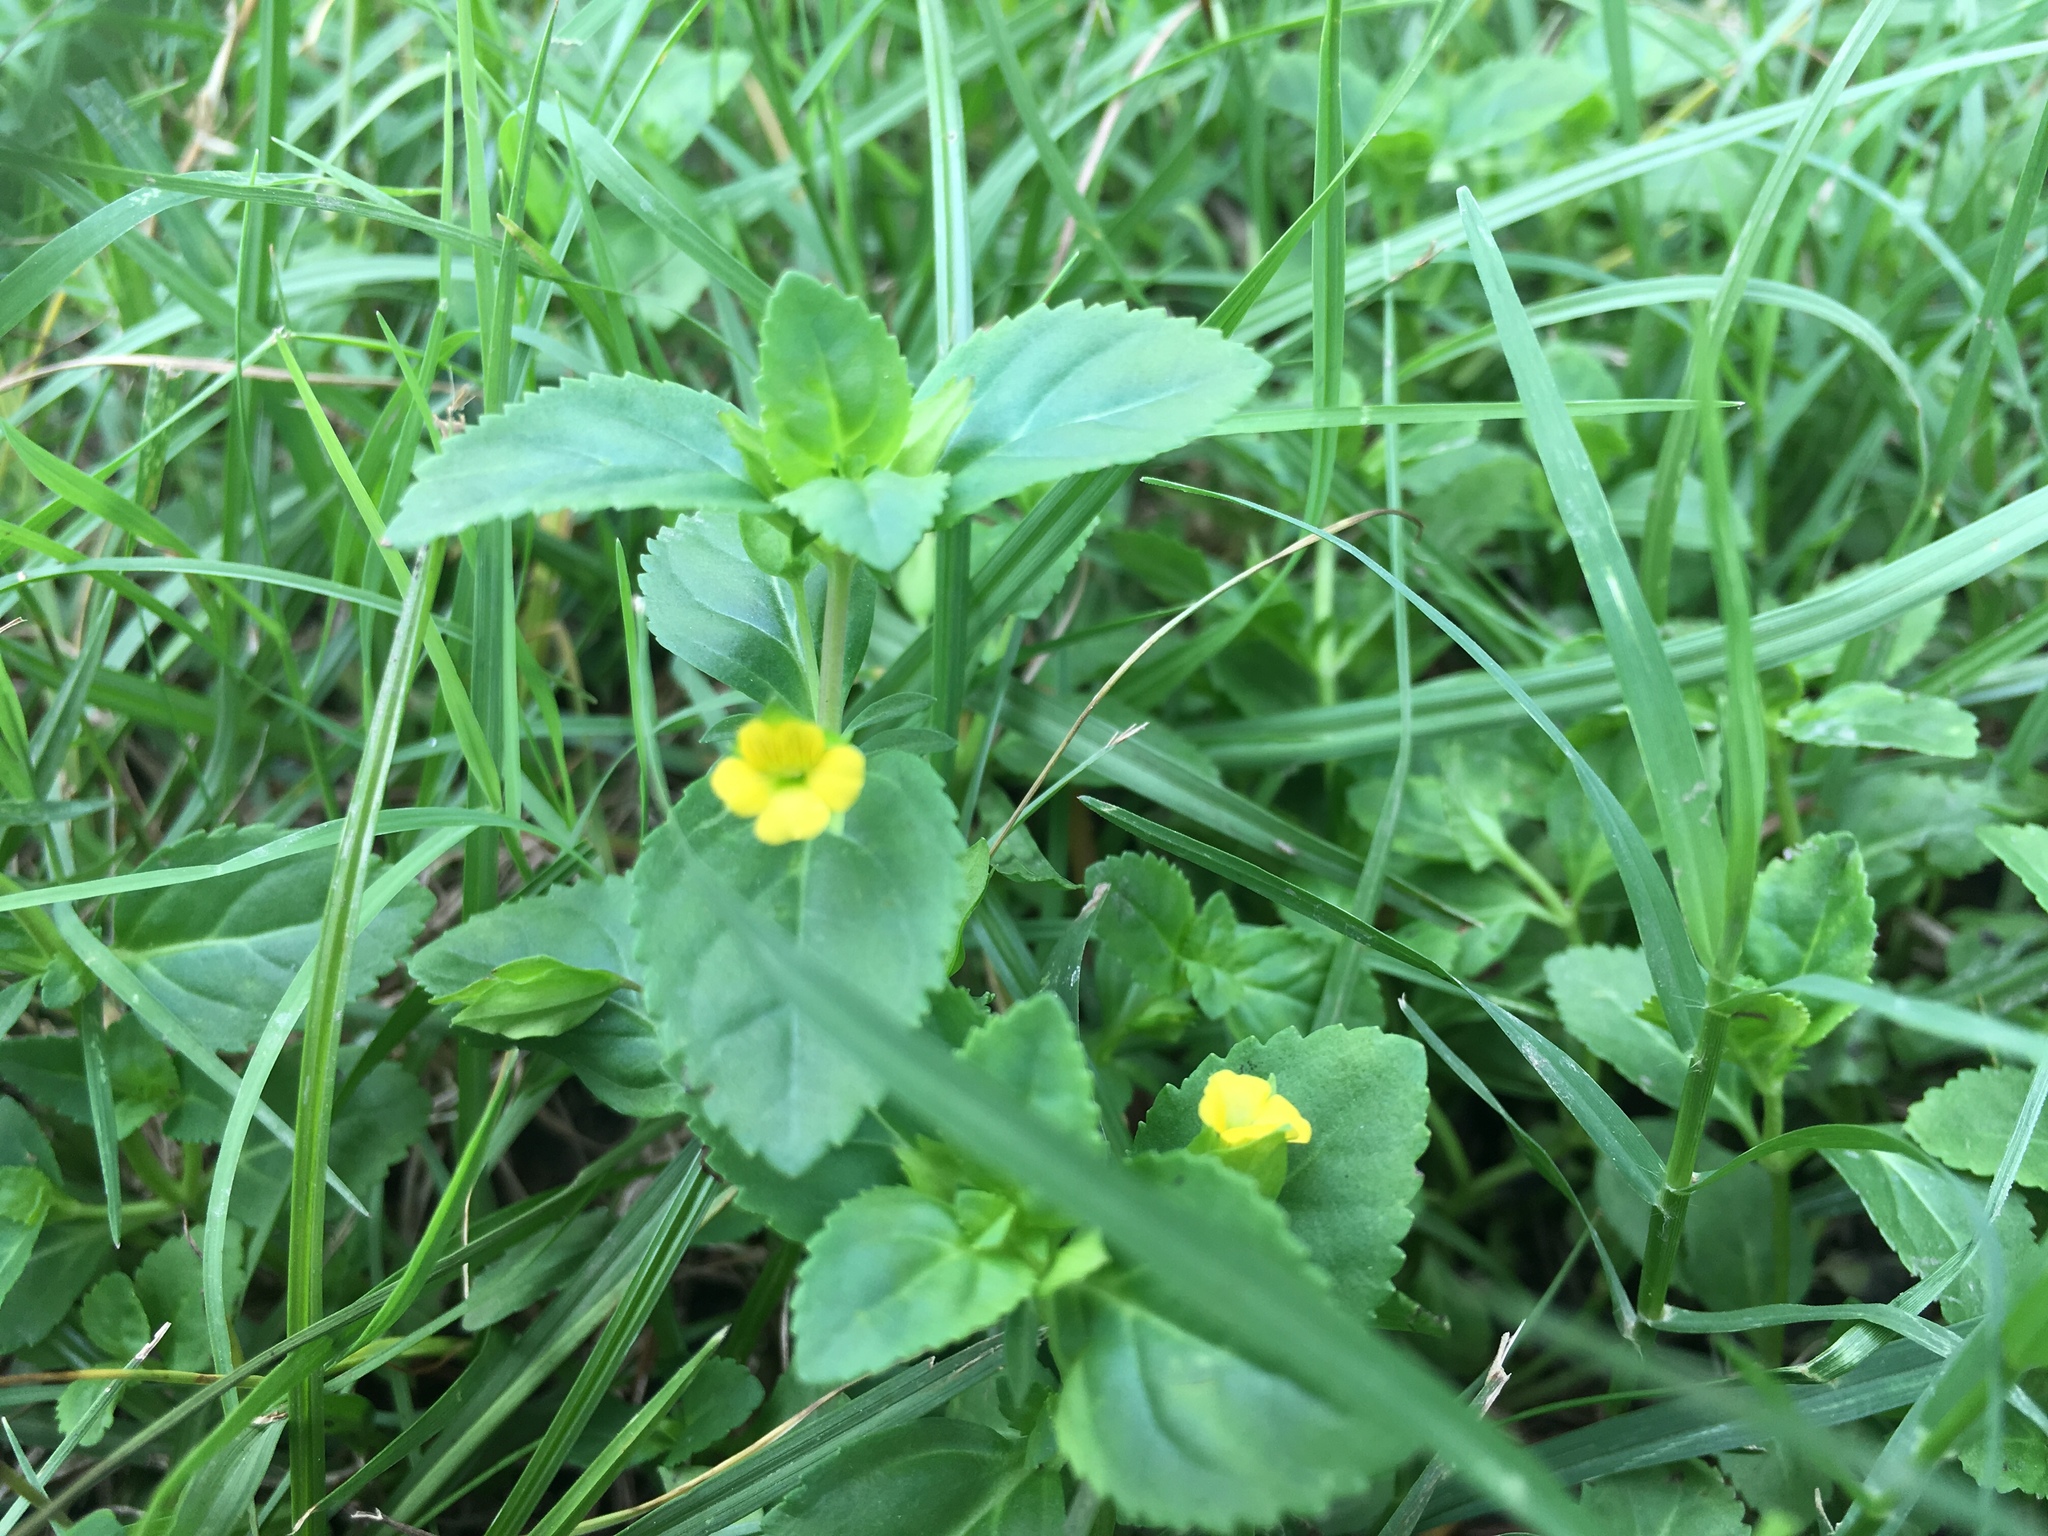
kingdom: Plantae
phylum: Tracheophyta
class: Magnoliopsida
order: Lamiales
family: Plantaginaceae
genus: Mecardonia
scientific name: Mecardonia procumbens
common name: Baby jump-up
